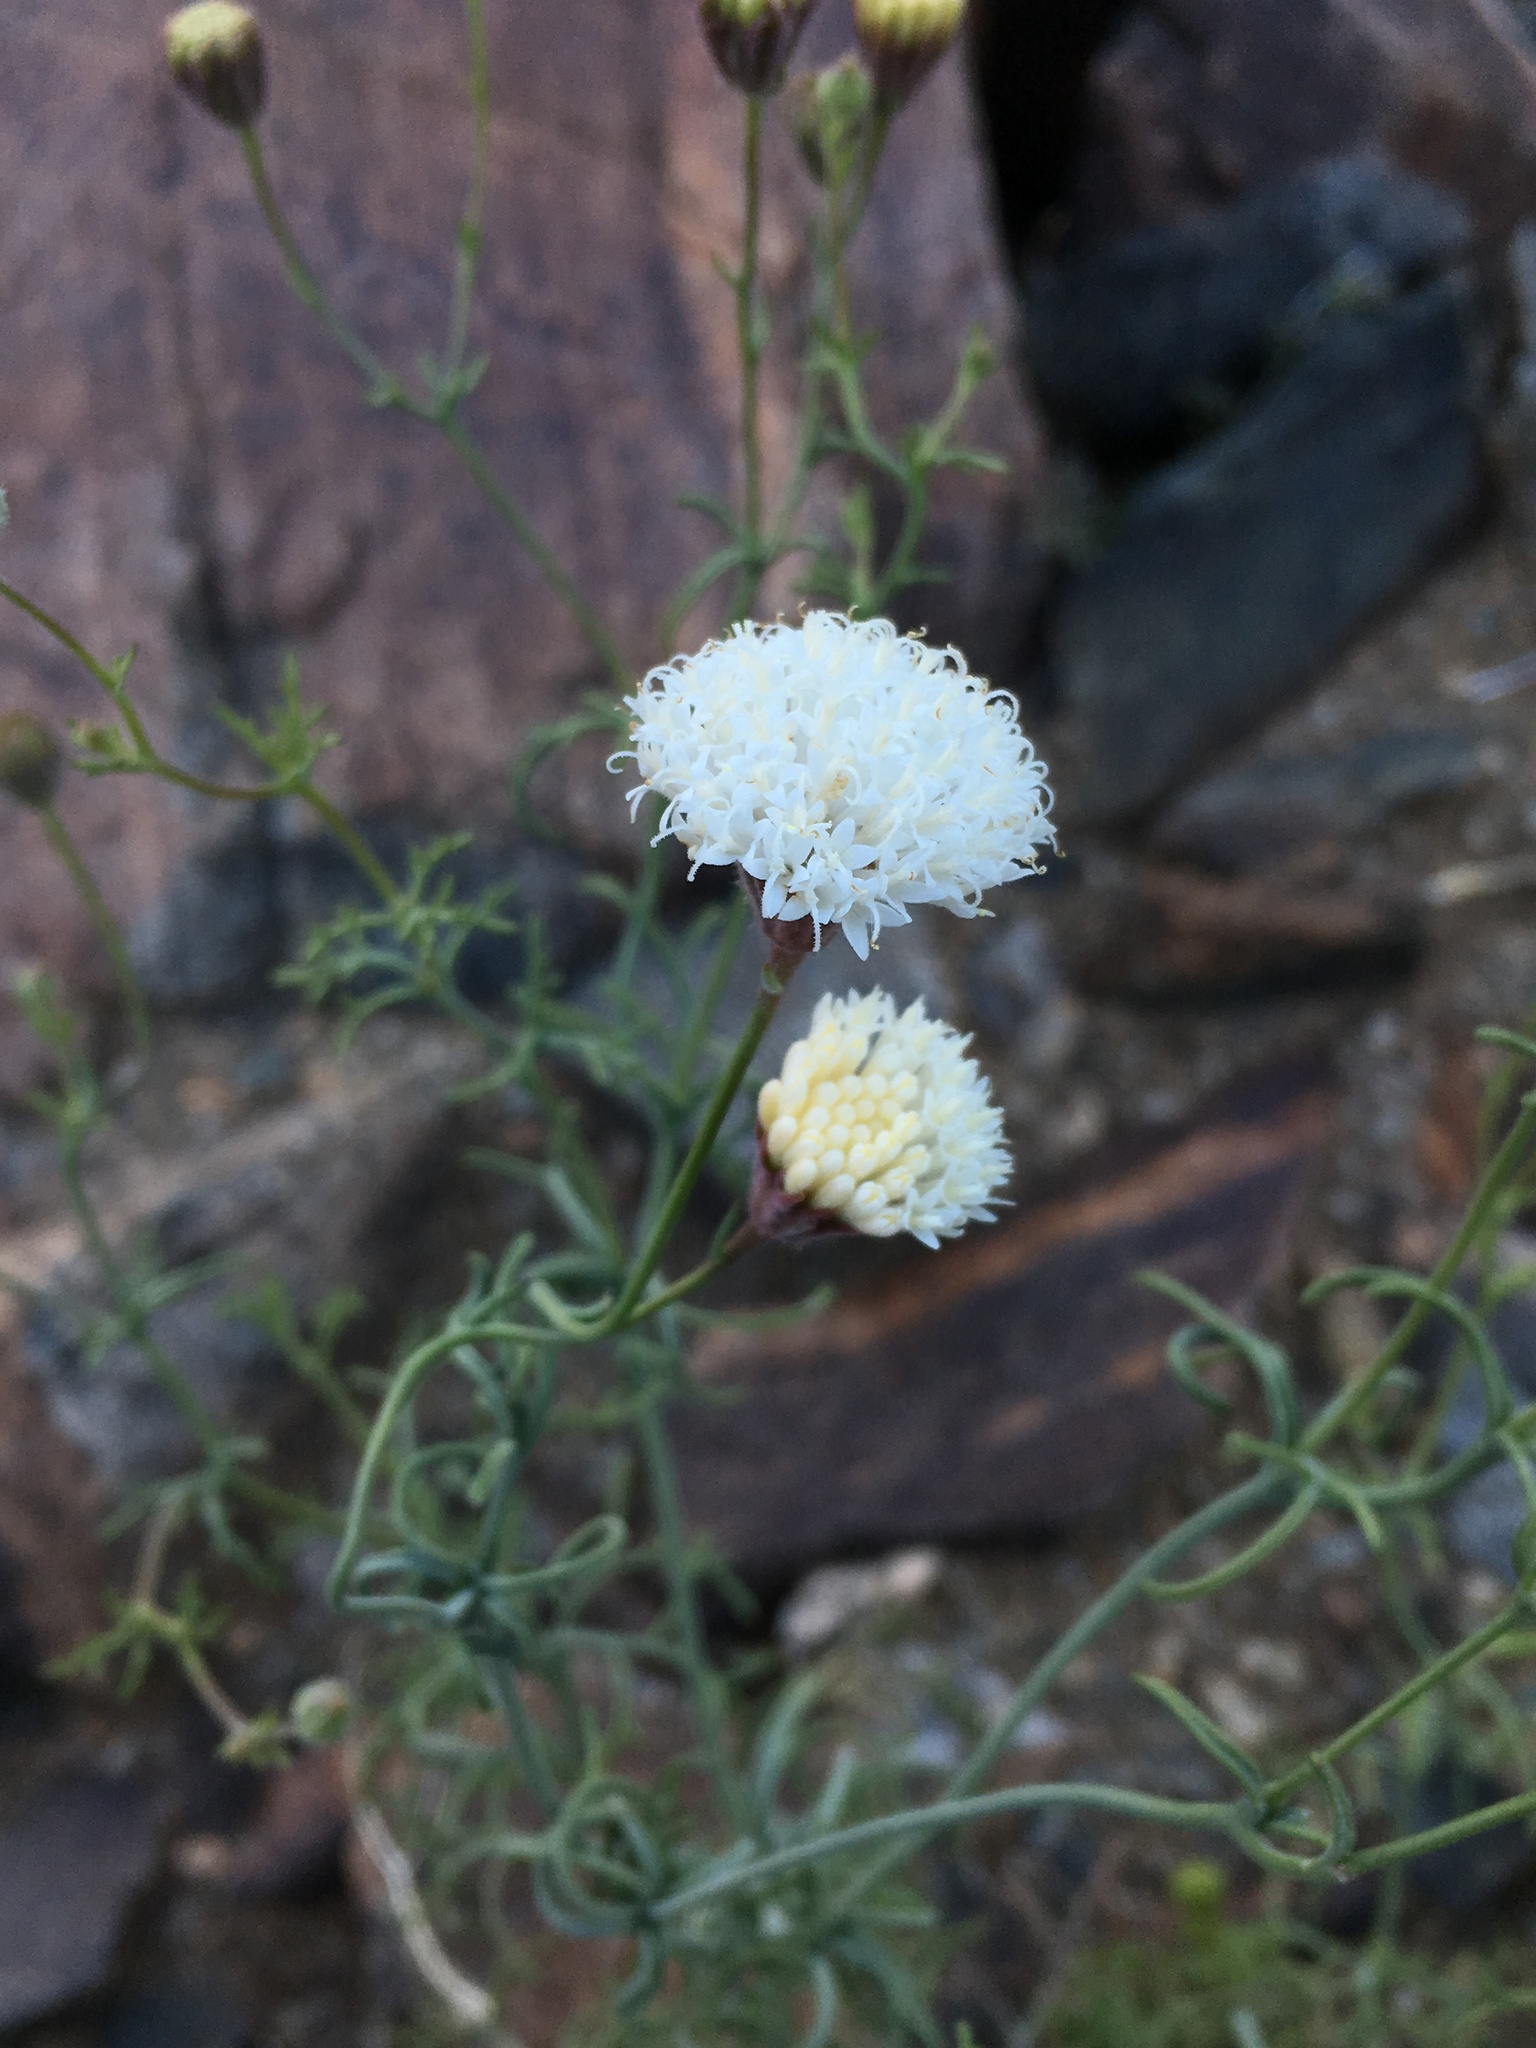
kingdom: Plantae
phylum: Tracheophyta
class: Magnoliopsida
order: Asterales
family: Asteraceae
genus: Chaenactis
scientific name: Chaenactis carphoclinia
